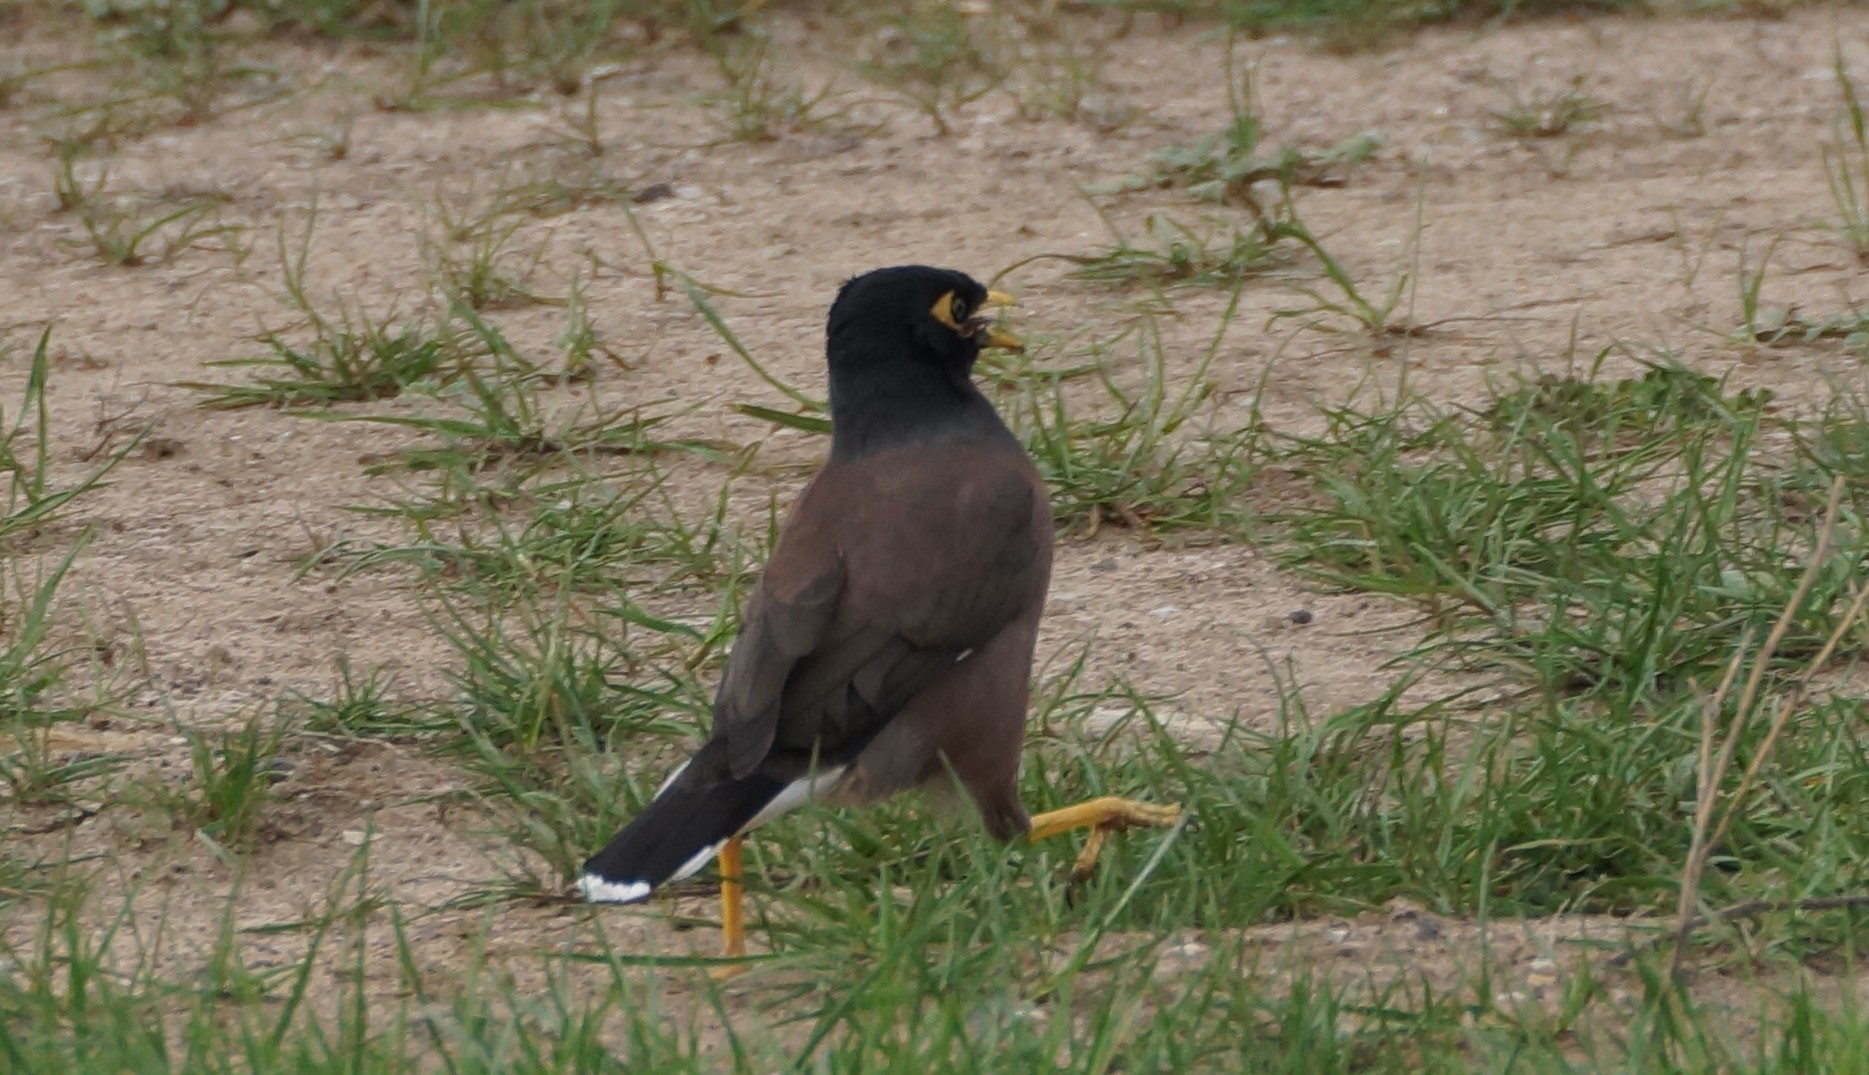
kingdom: Animalia
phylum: Chordata
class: Aves
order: Passeriformes
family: Sturnidae
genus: Acridotheres
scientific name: Acridotheres tristis
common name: Common myna
